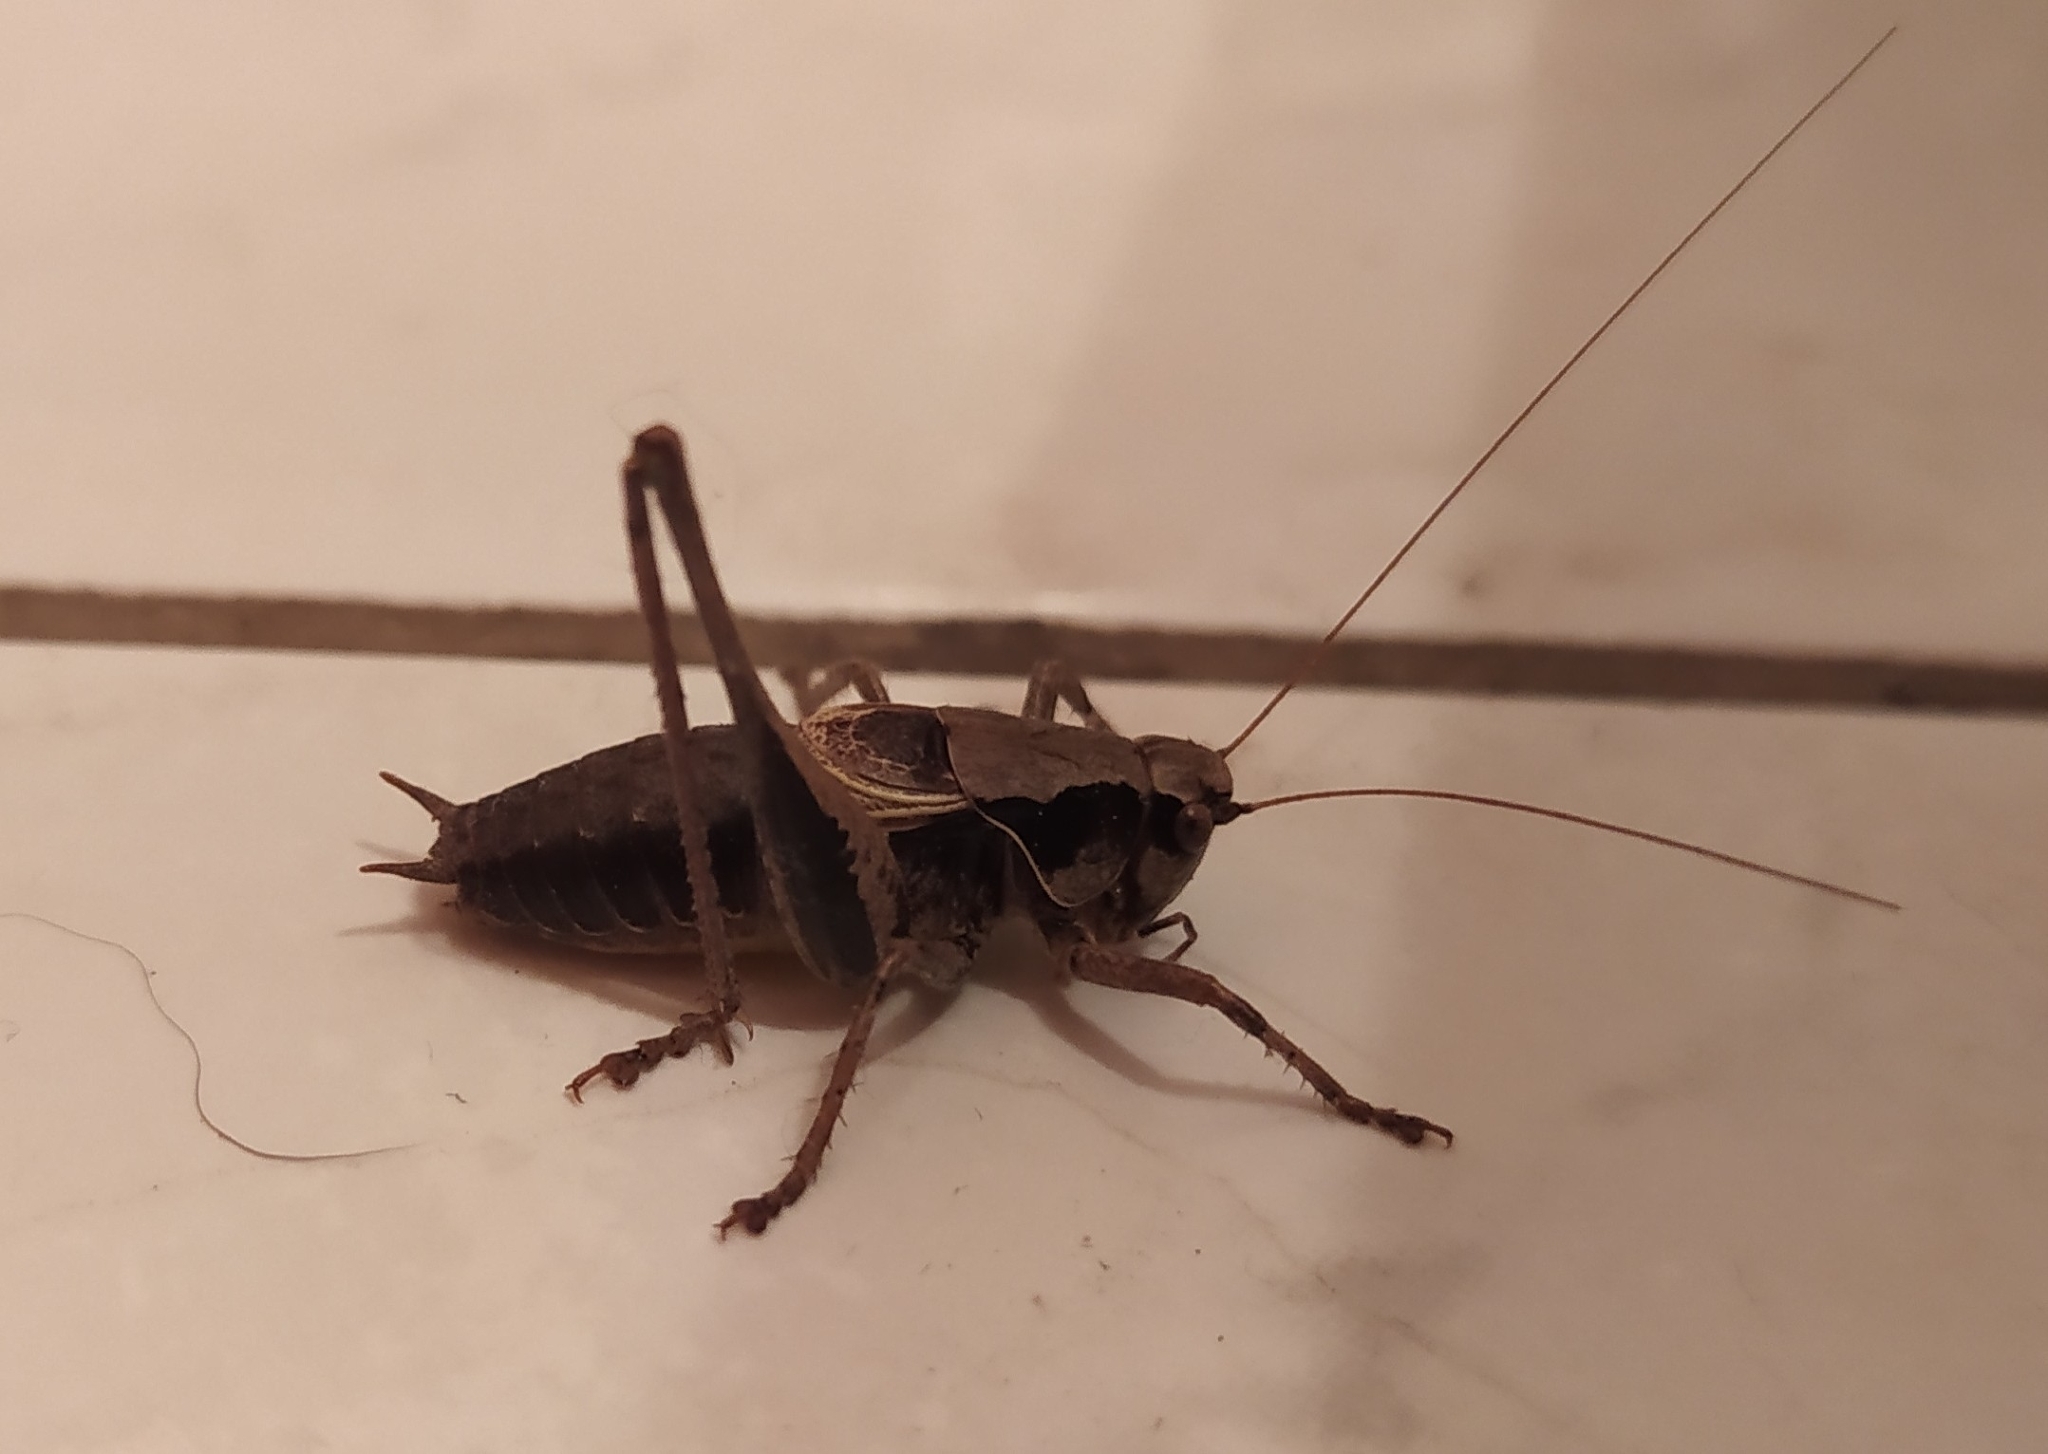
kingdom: Animalia
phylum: Arthropoda
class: Insecta
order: Orthoptera
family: Tettigoniidae
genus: Pholidoptera
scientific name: Pholidoptera griseoaptera
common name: Dark bush-cricket
